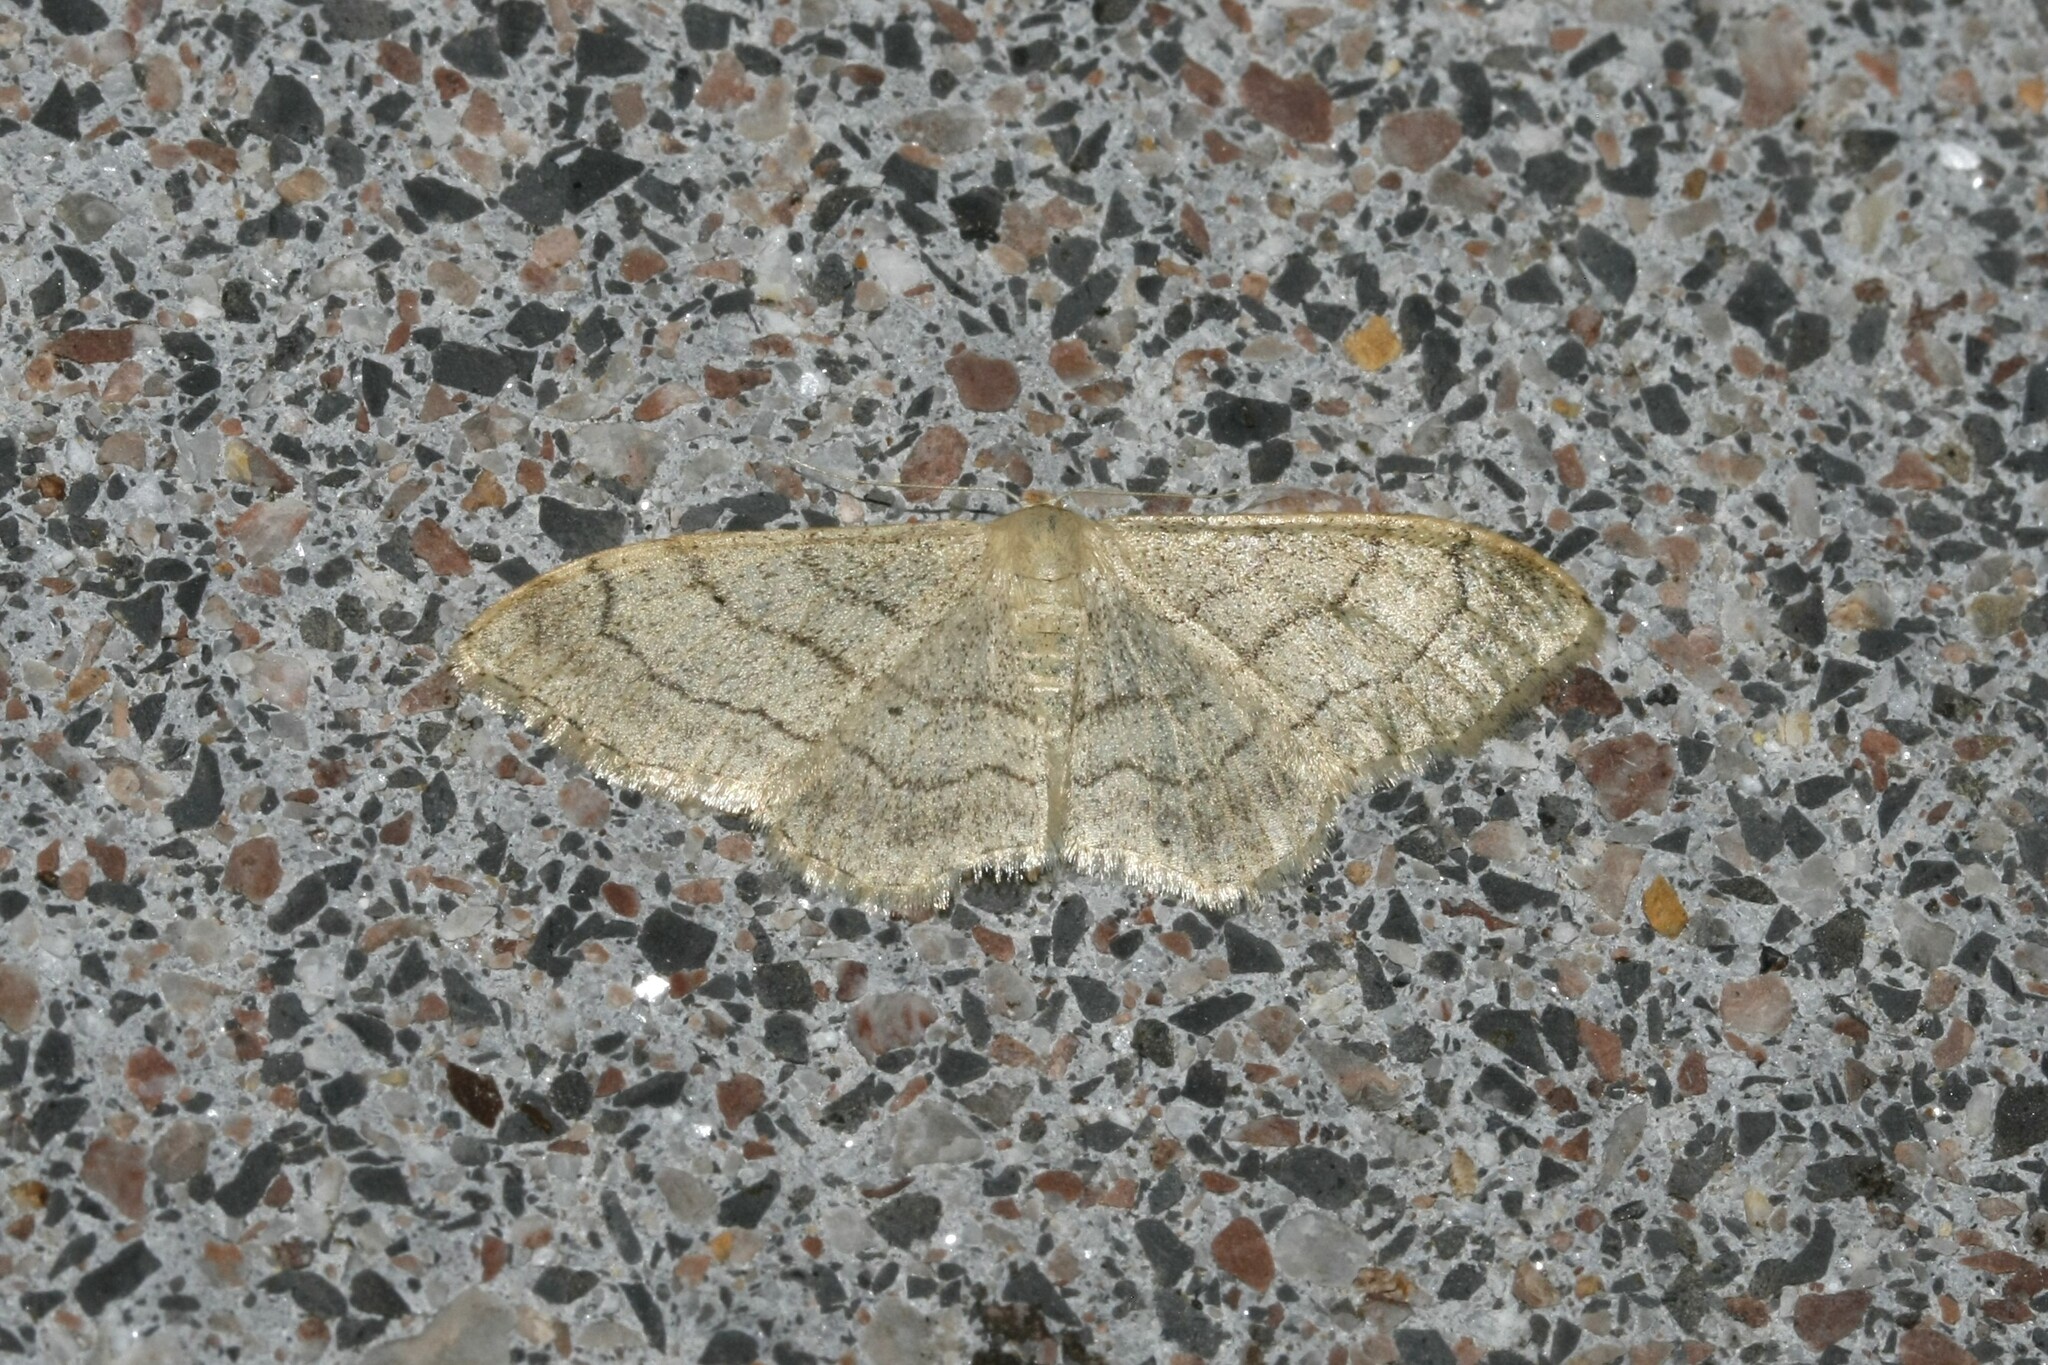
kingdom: Animalia
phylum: Arthropoda
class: Insecta
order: Lepidoptera
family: Geometridae
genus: Idaea
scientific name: Idaea aversata
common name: Riband wave
